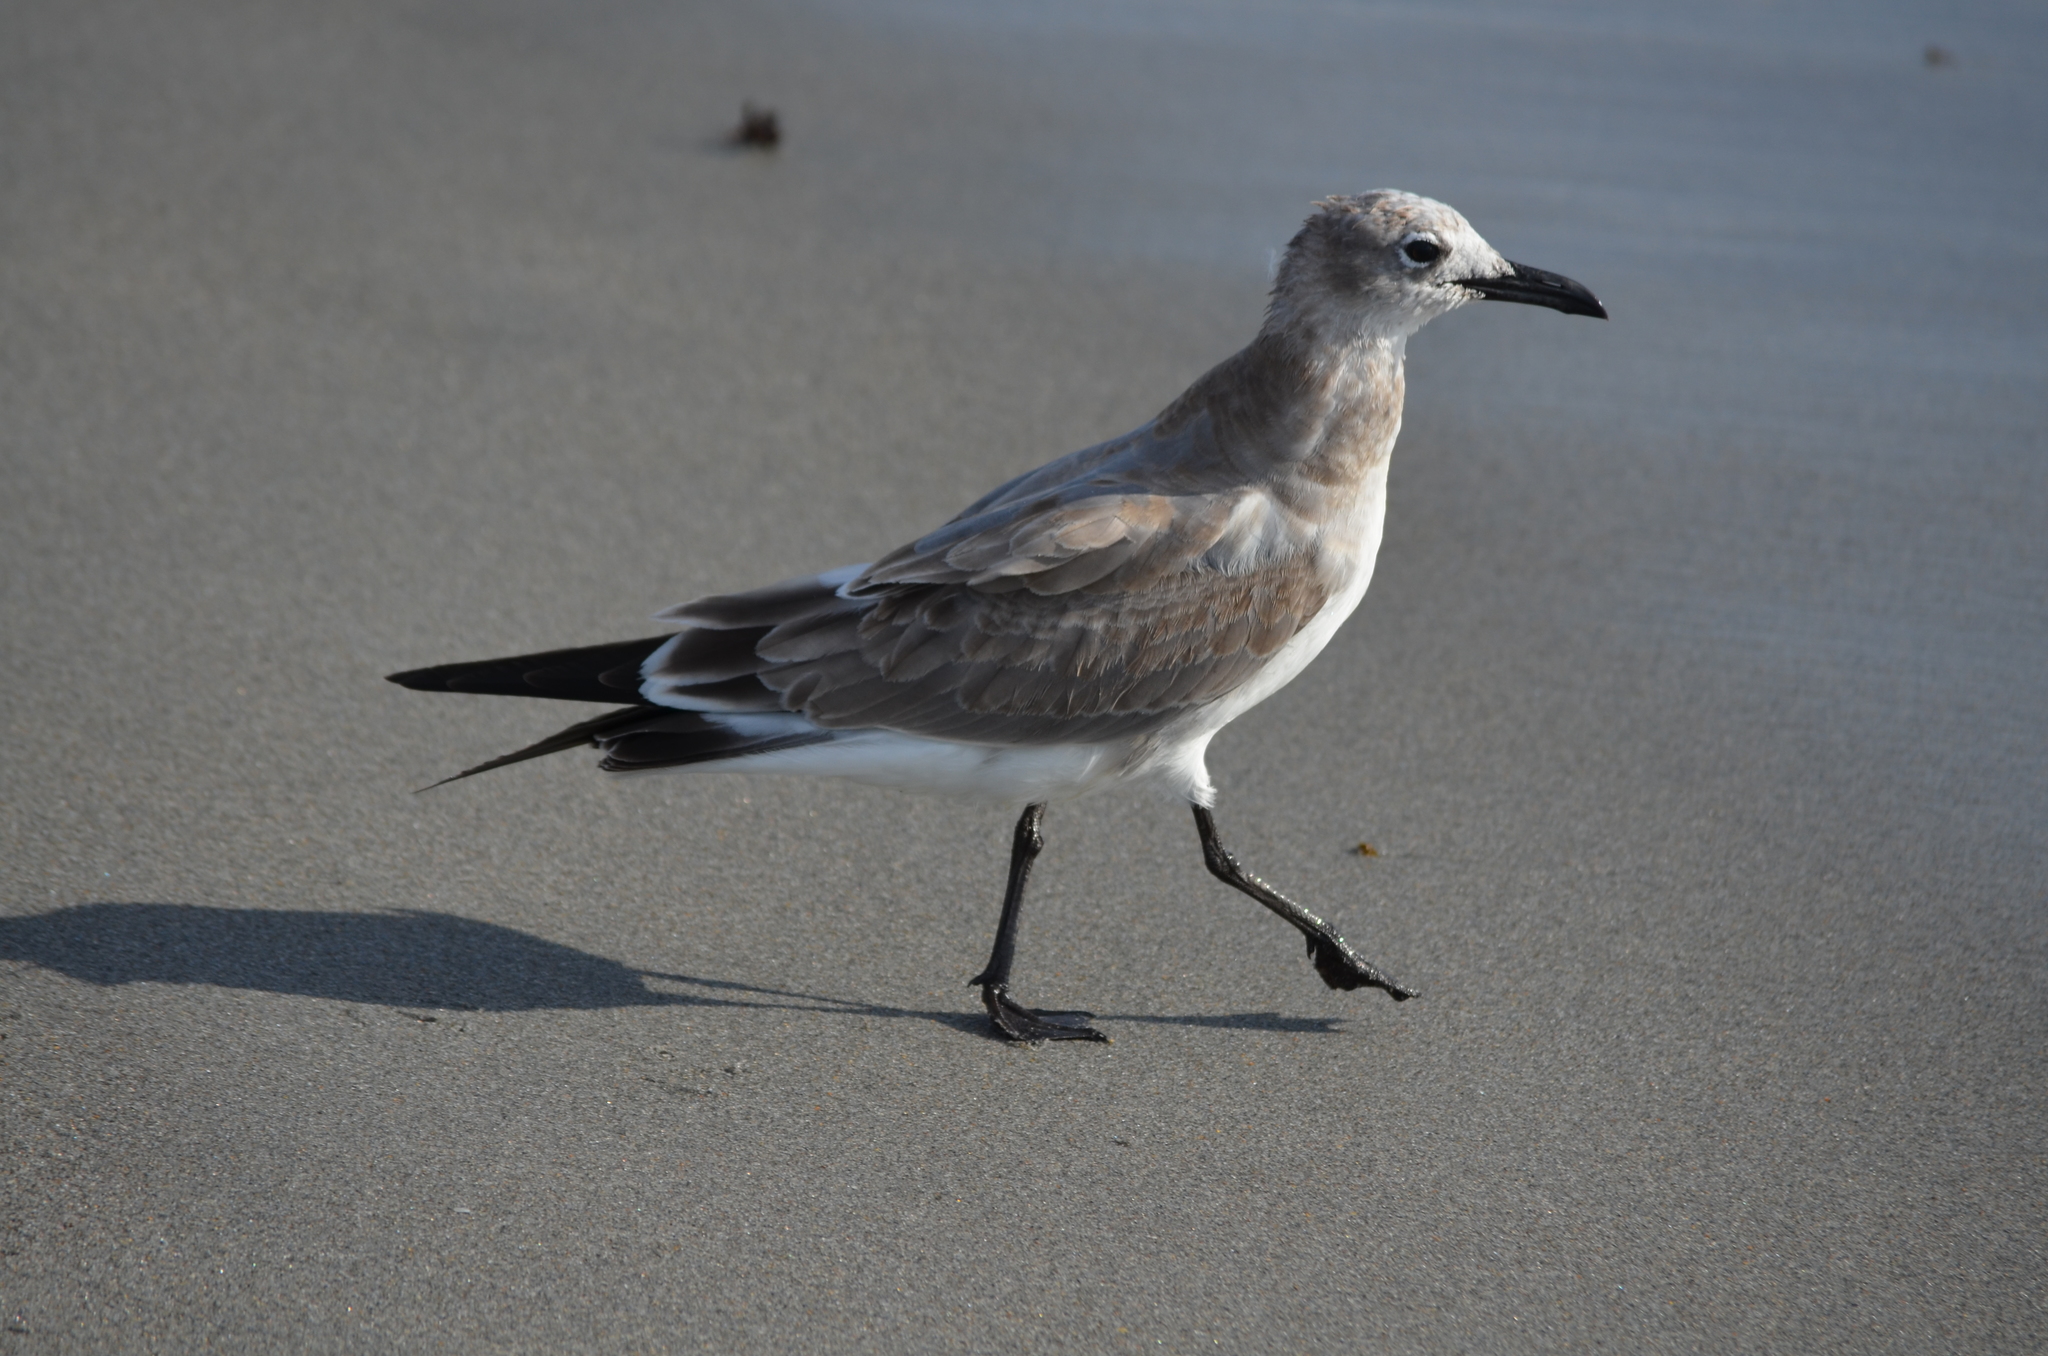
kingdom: Animalia
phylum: Chordata
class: Aves
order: Charadriiformes
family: Laridae
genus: Leucophaeus
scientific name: Leucophaeus atricilla
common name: Laughing gull
